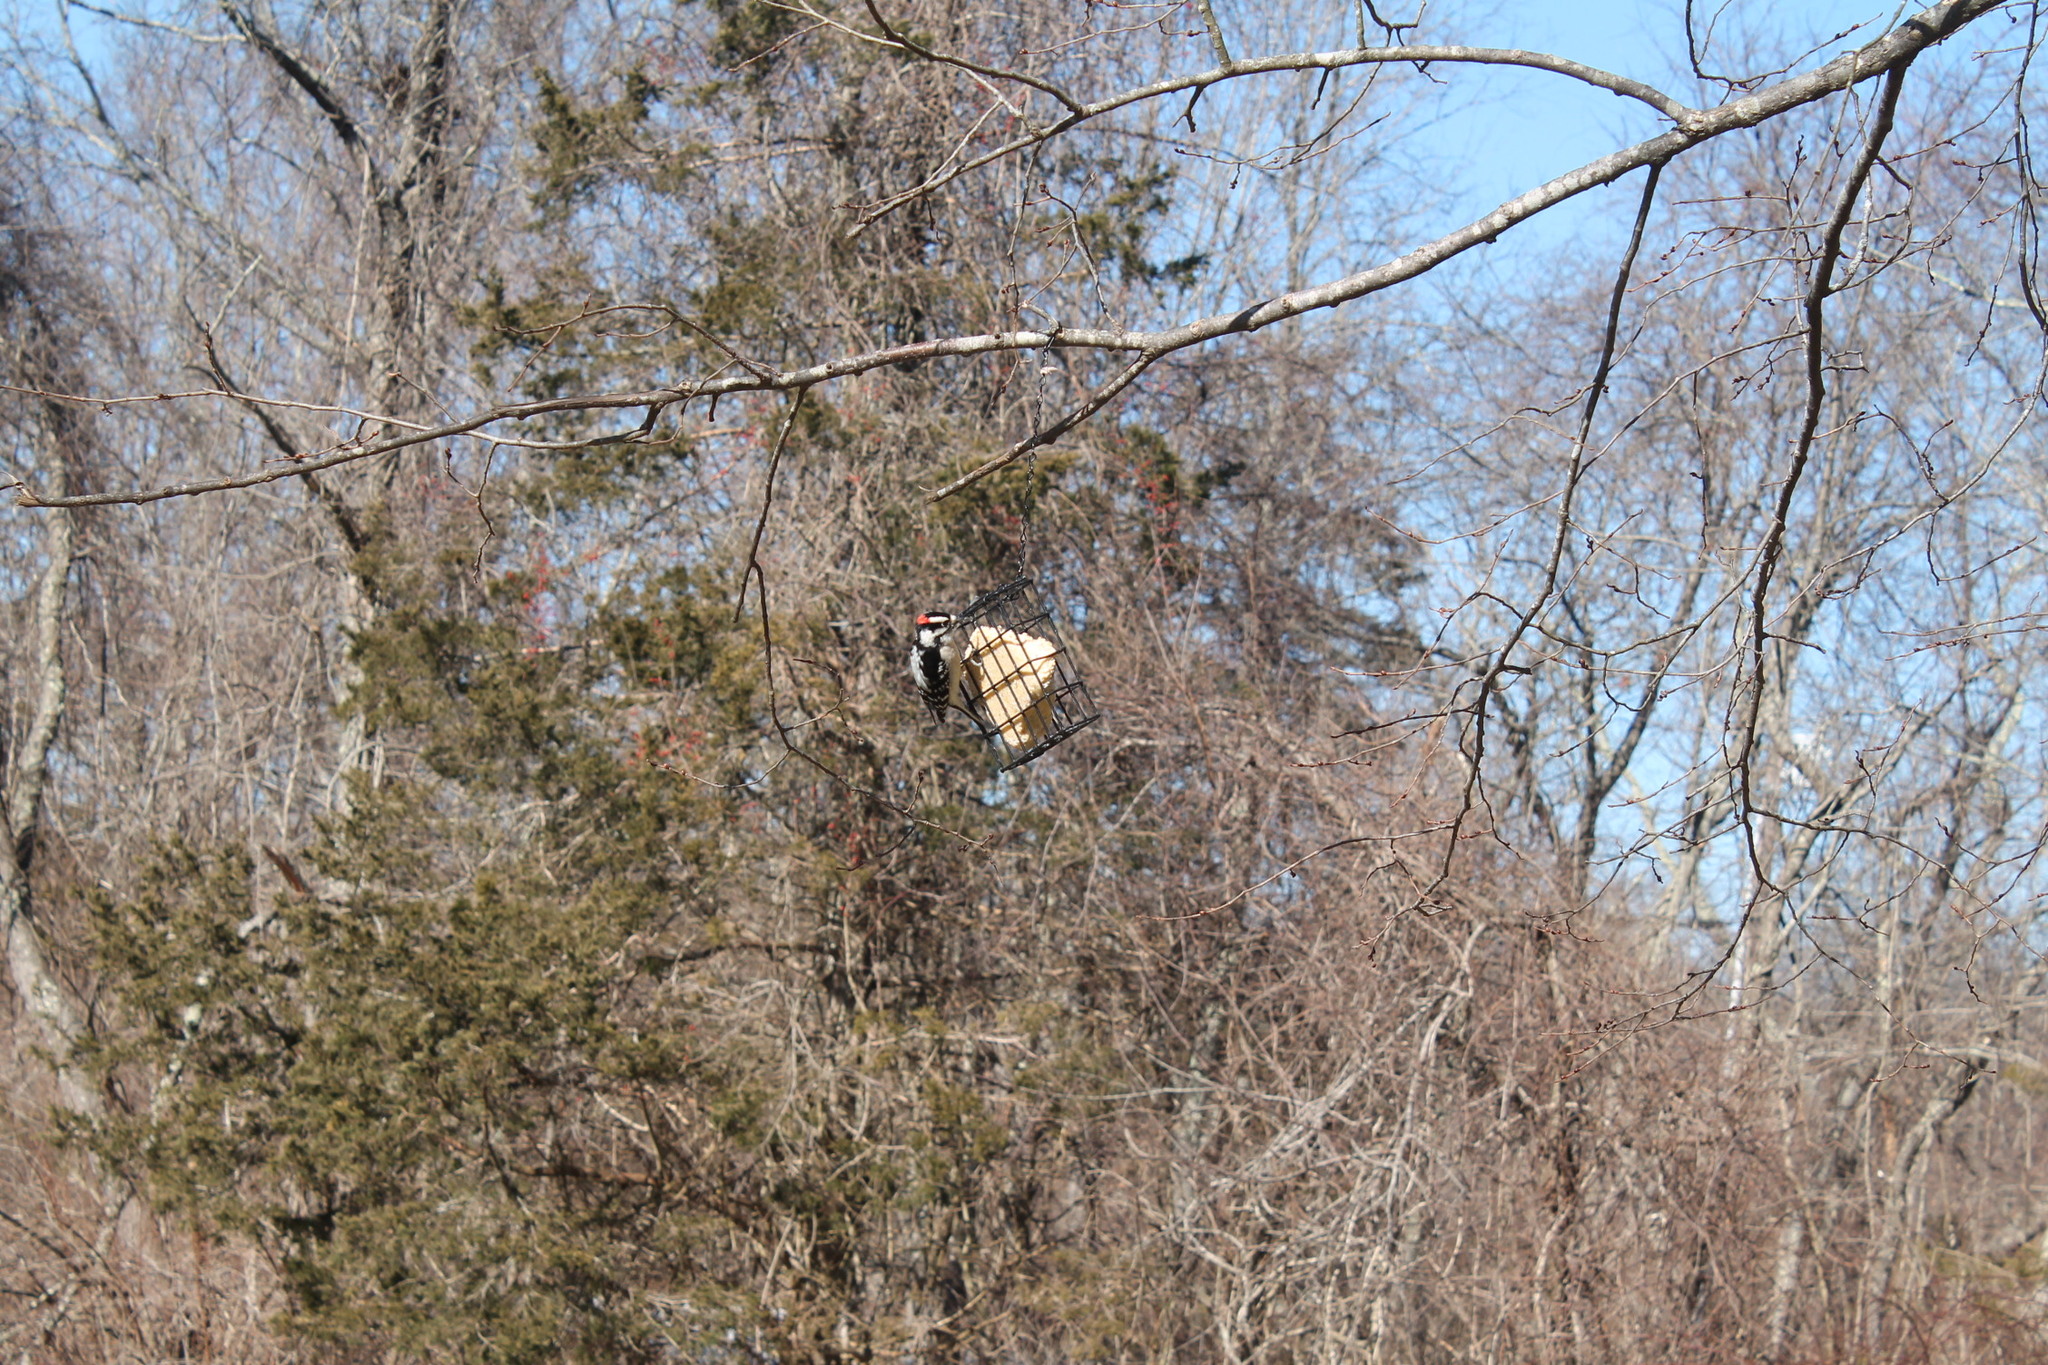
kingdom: Animalia
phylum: Chordata
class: Aves
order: Piciformes
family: Picidae
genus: Dryobates
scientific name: Dryobates pubescens
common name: Downy woodpecker
